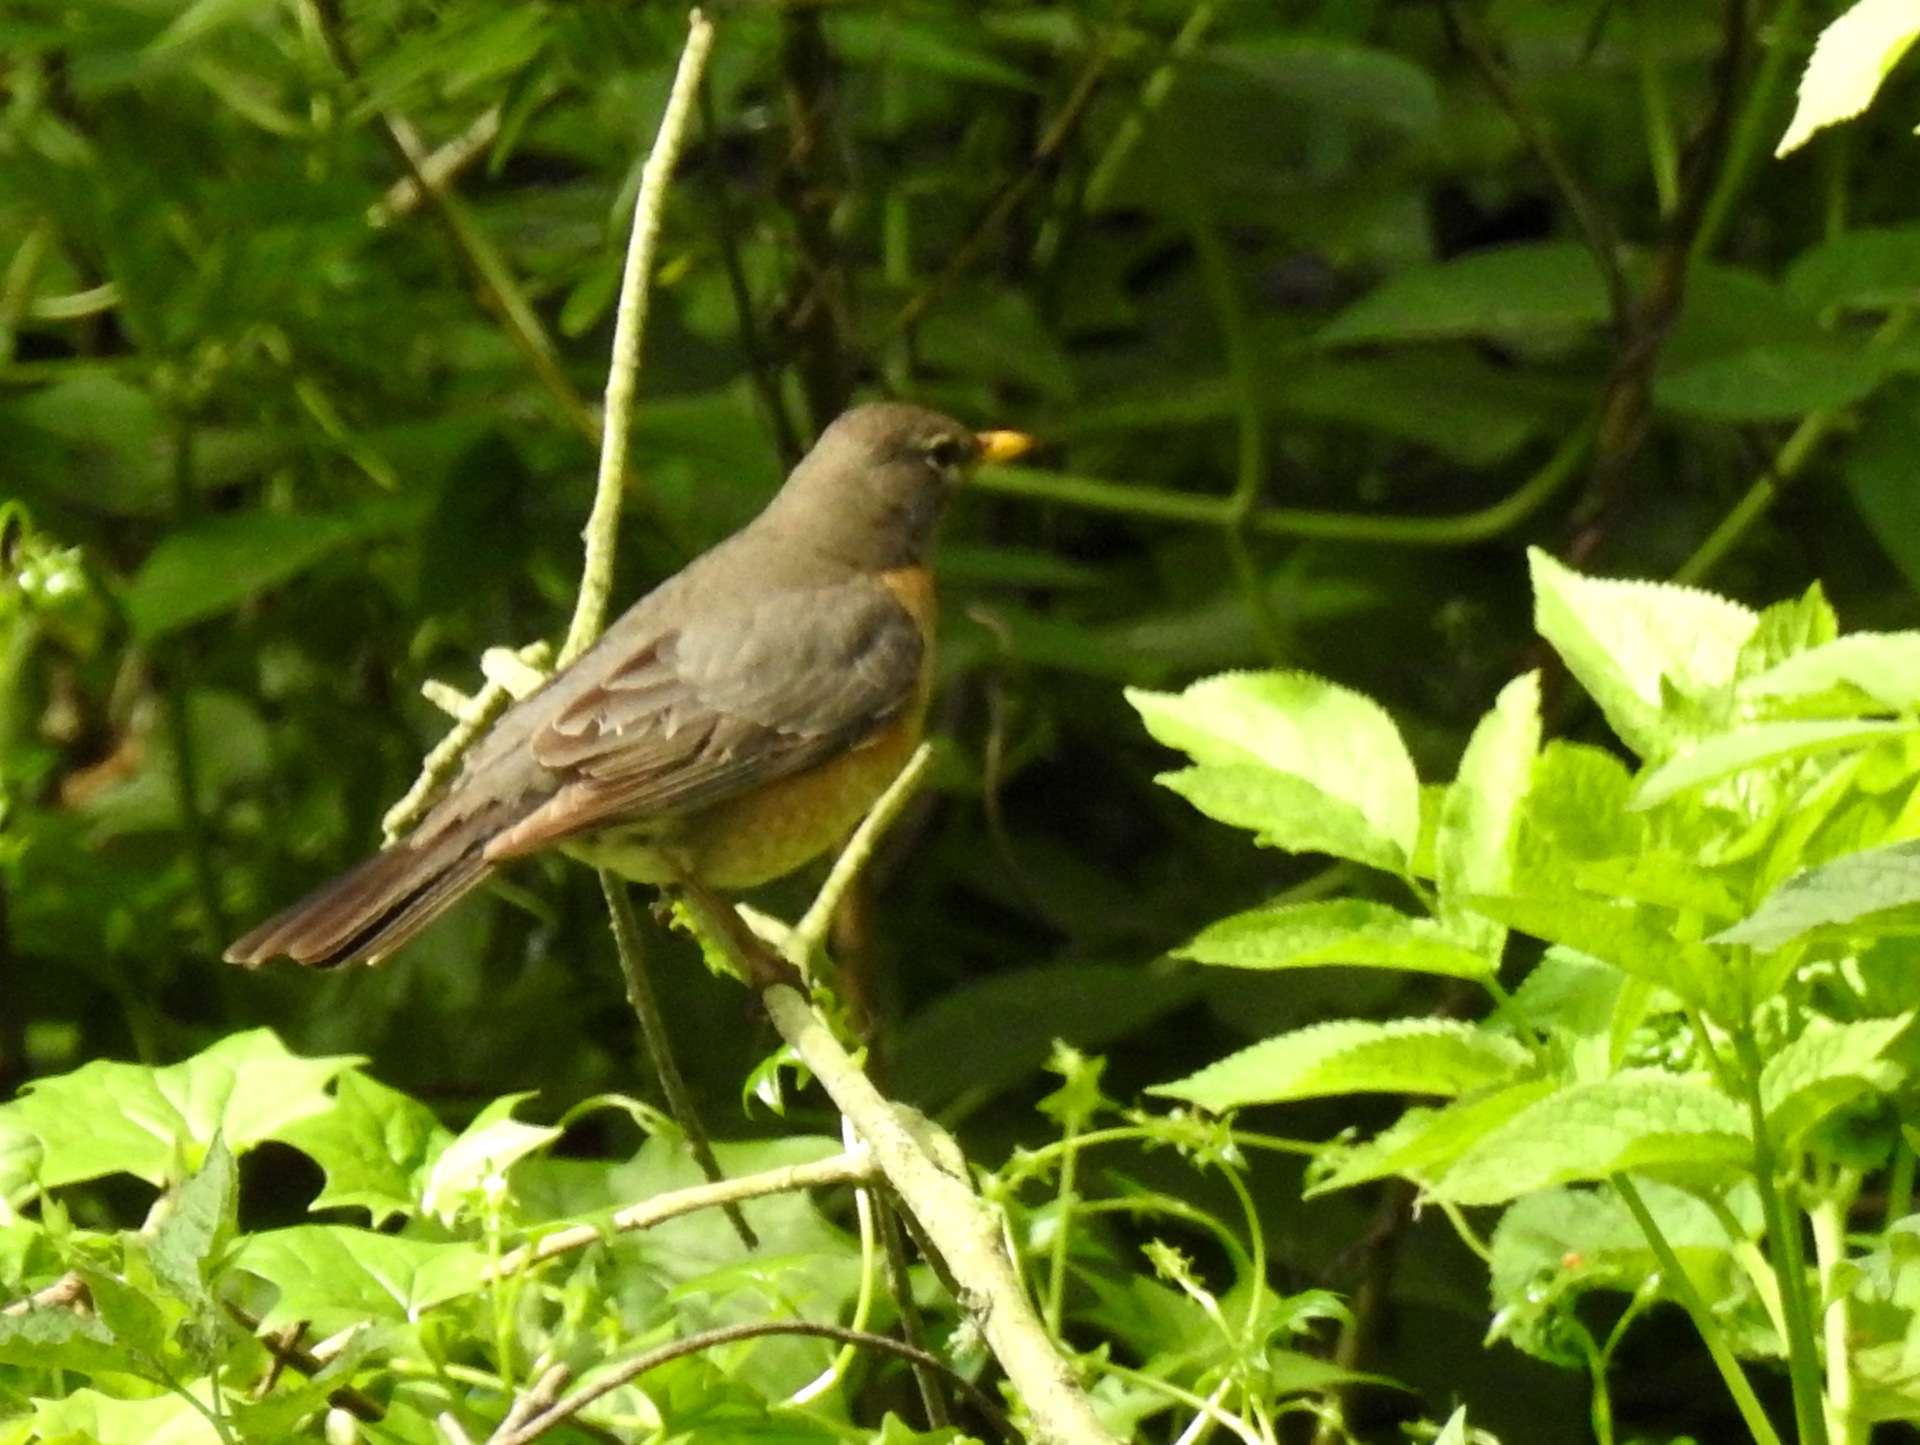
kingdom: Animalia
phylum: Chordata
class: Aves
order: Passeriformes
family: Turdidae
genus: Turdus
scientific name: Turdus migratorius
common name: American robin
